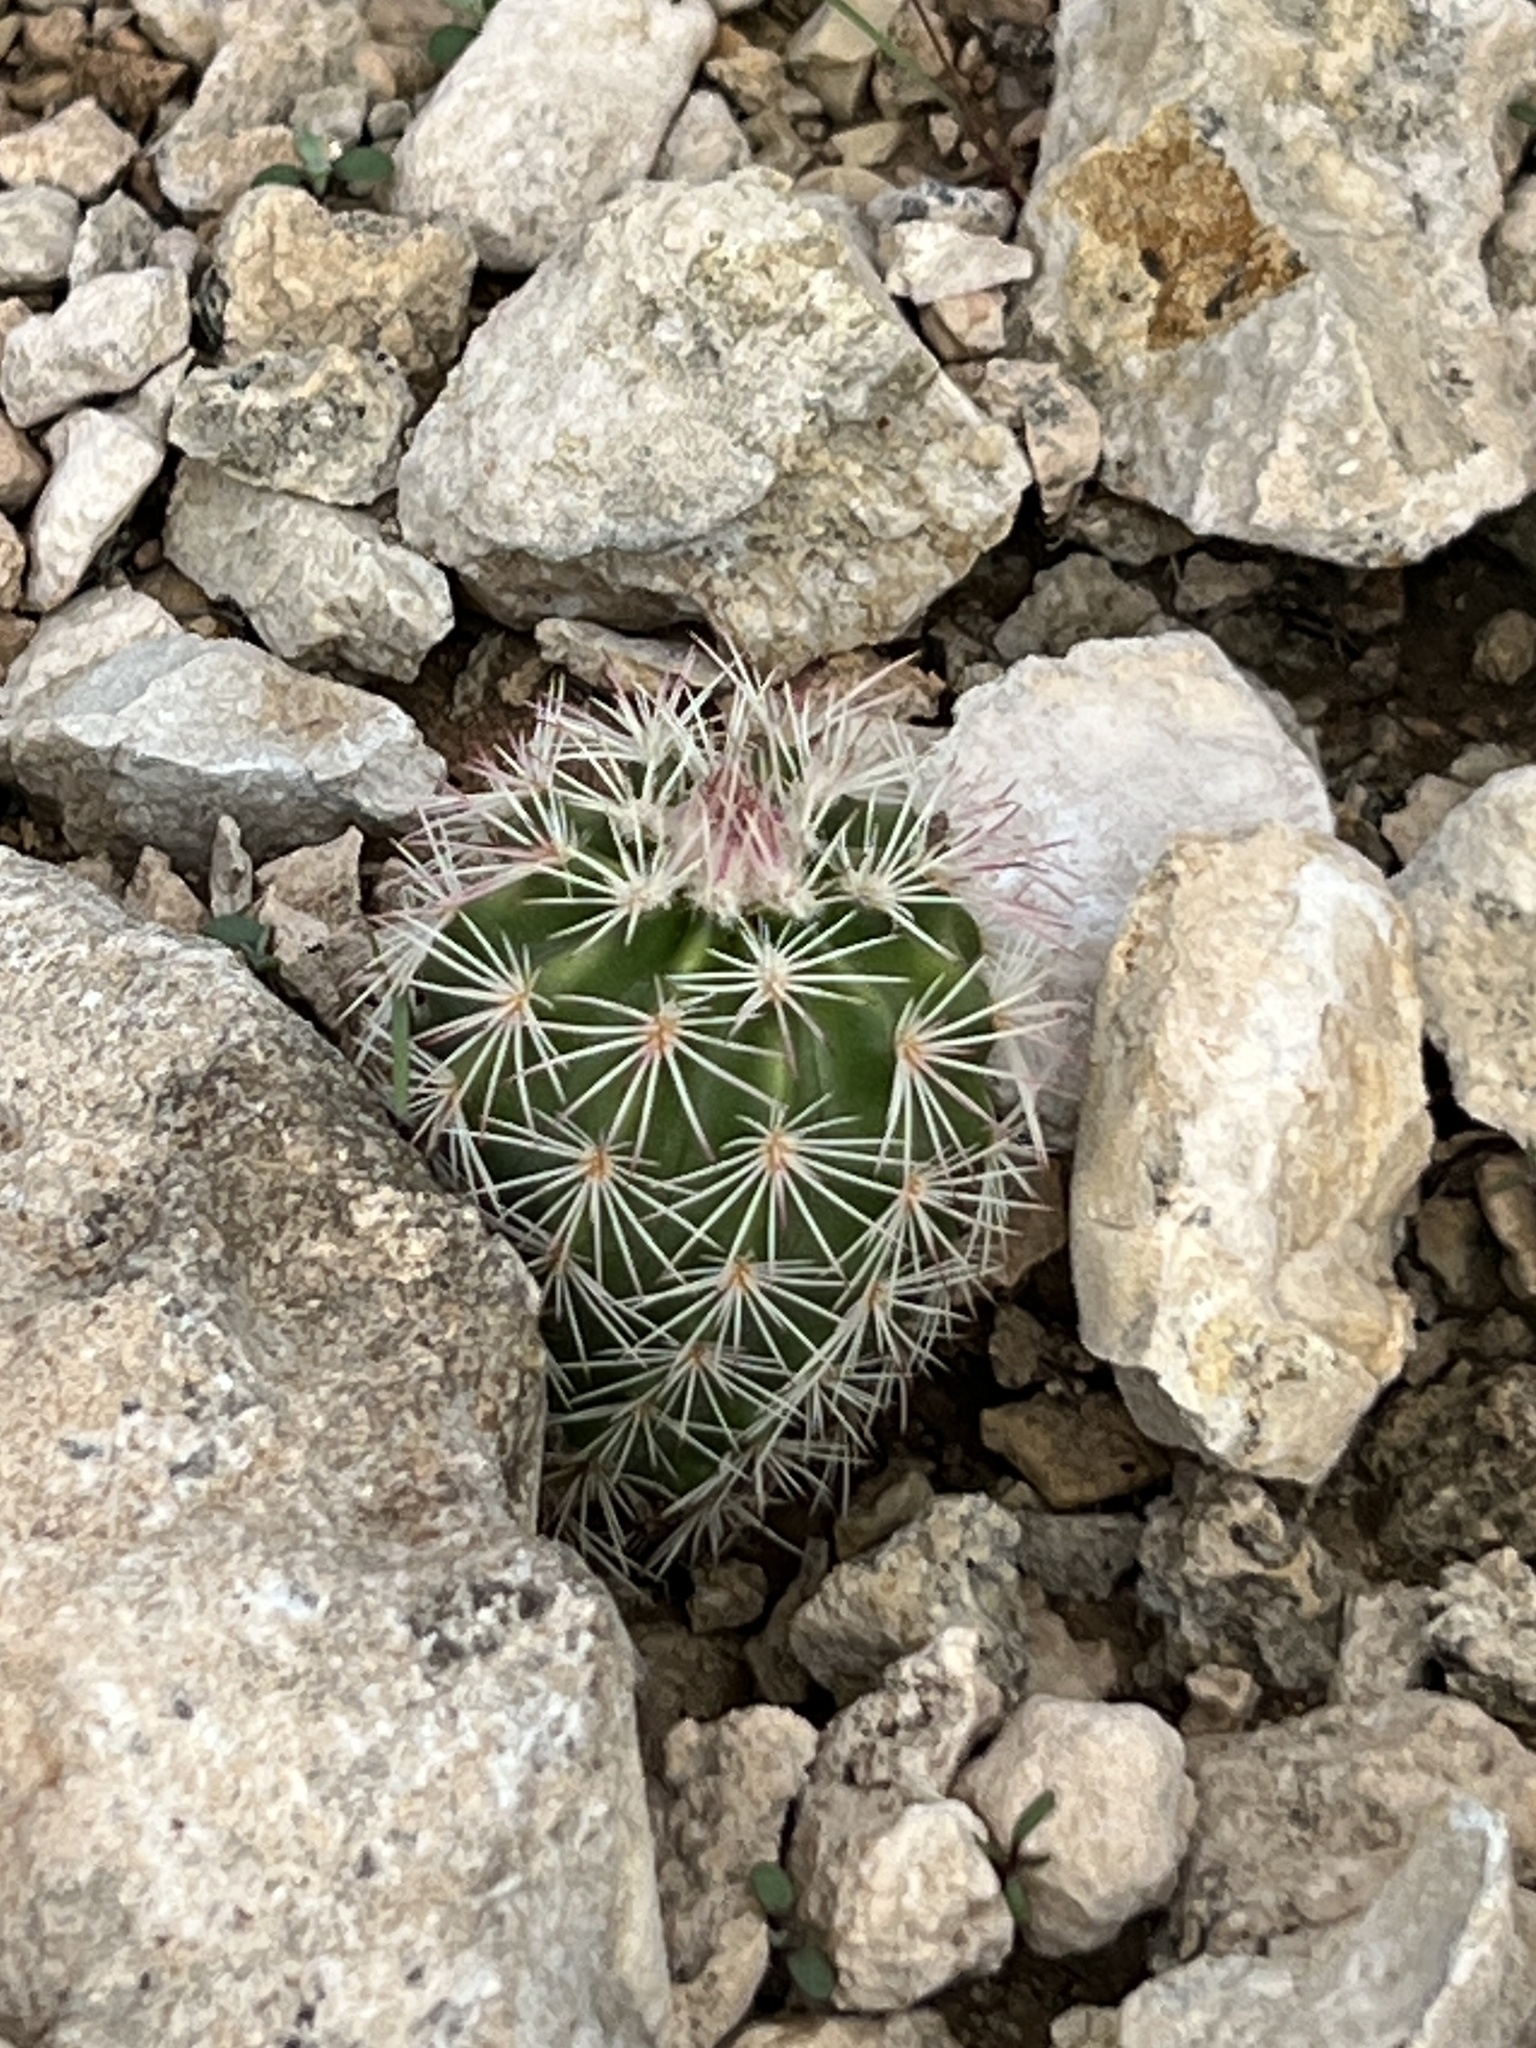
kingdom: Plantae
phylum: Tracheophyta
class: Magnoliopsida
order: Caryophyllales
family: Cactaceae
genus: Echinocereus
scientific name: Echinocereus dasyacanthus
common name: Spiny hedgehog cactus
